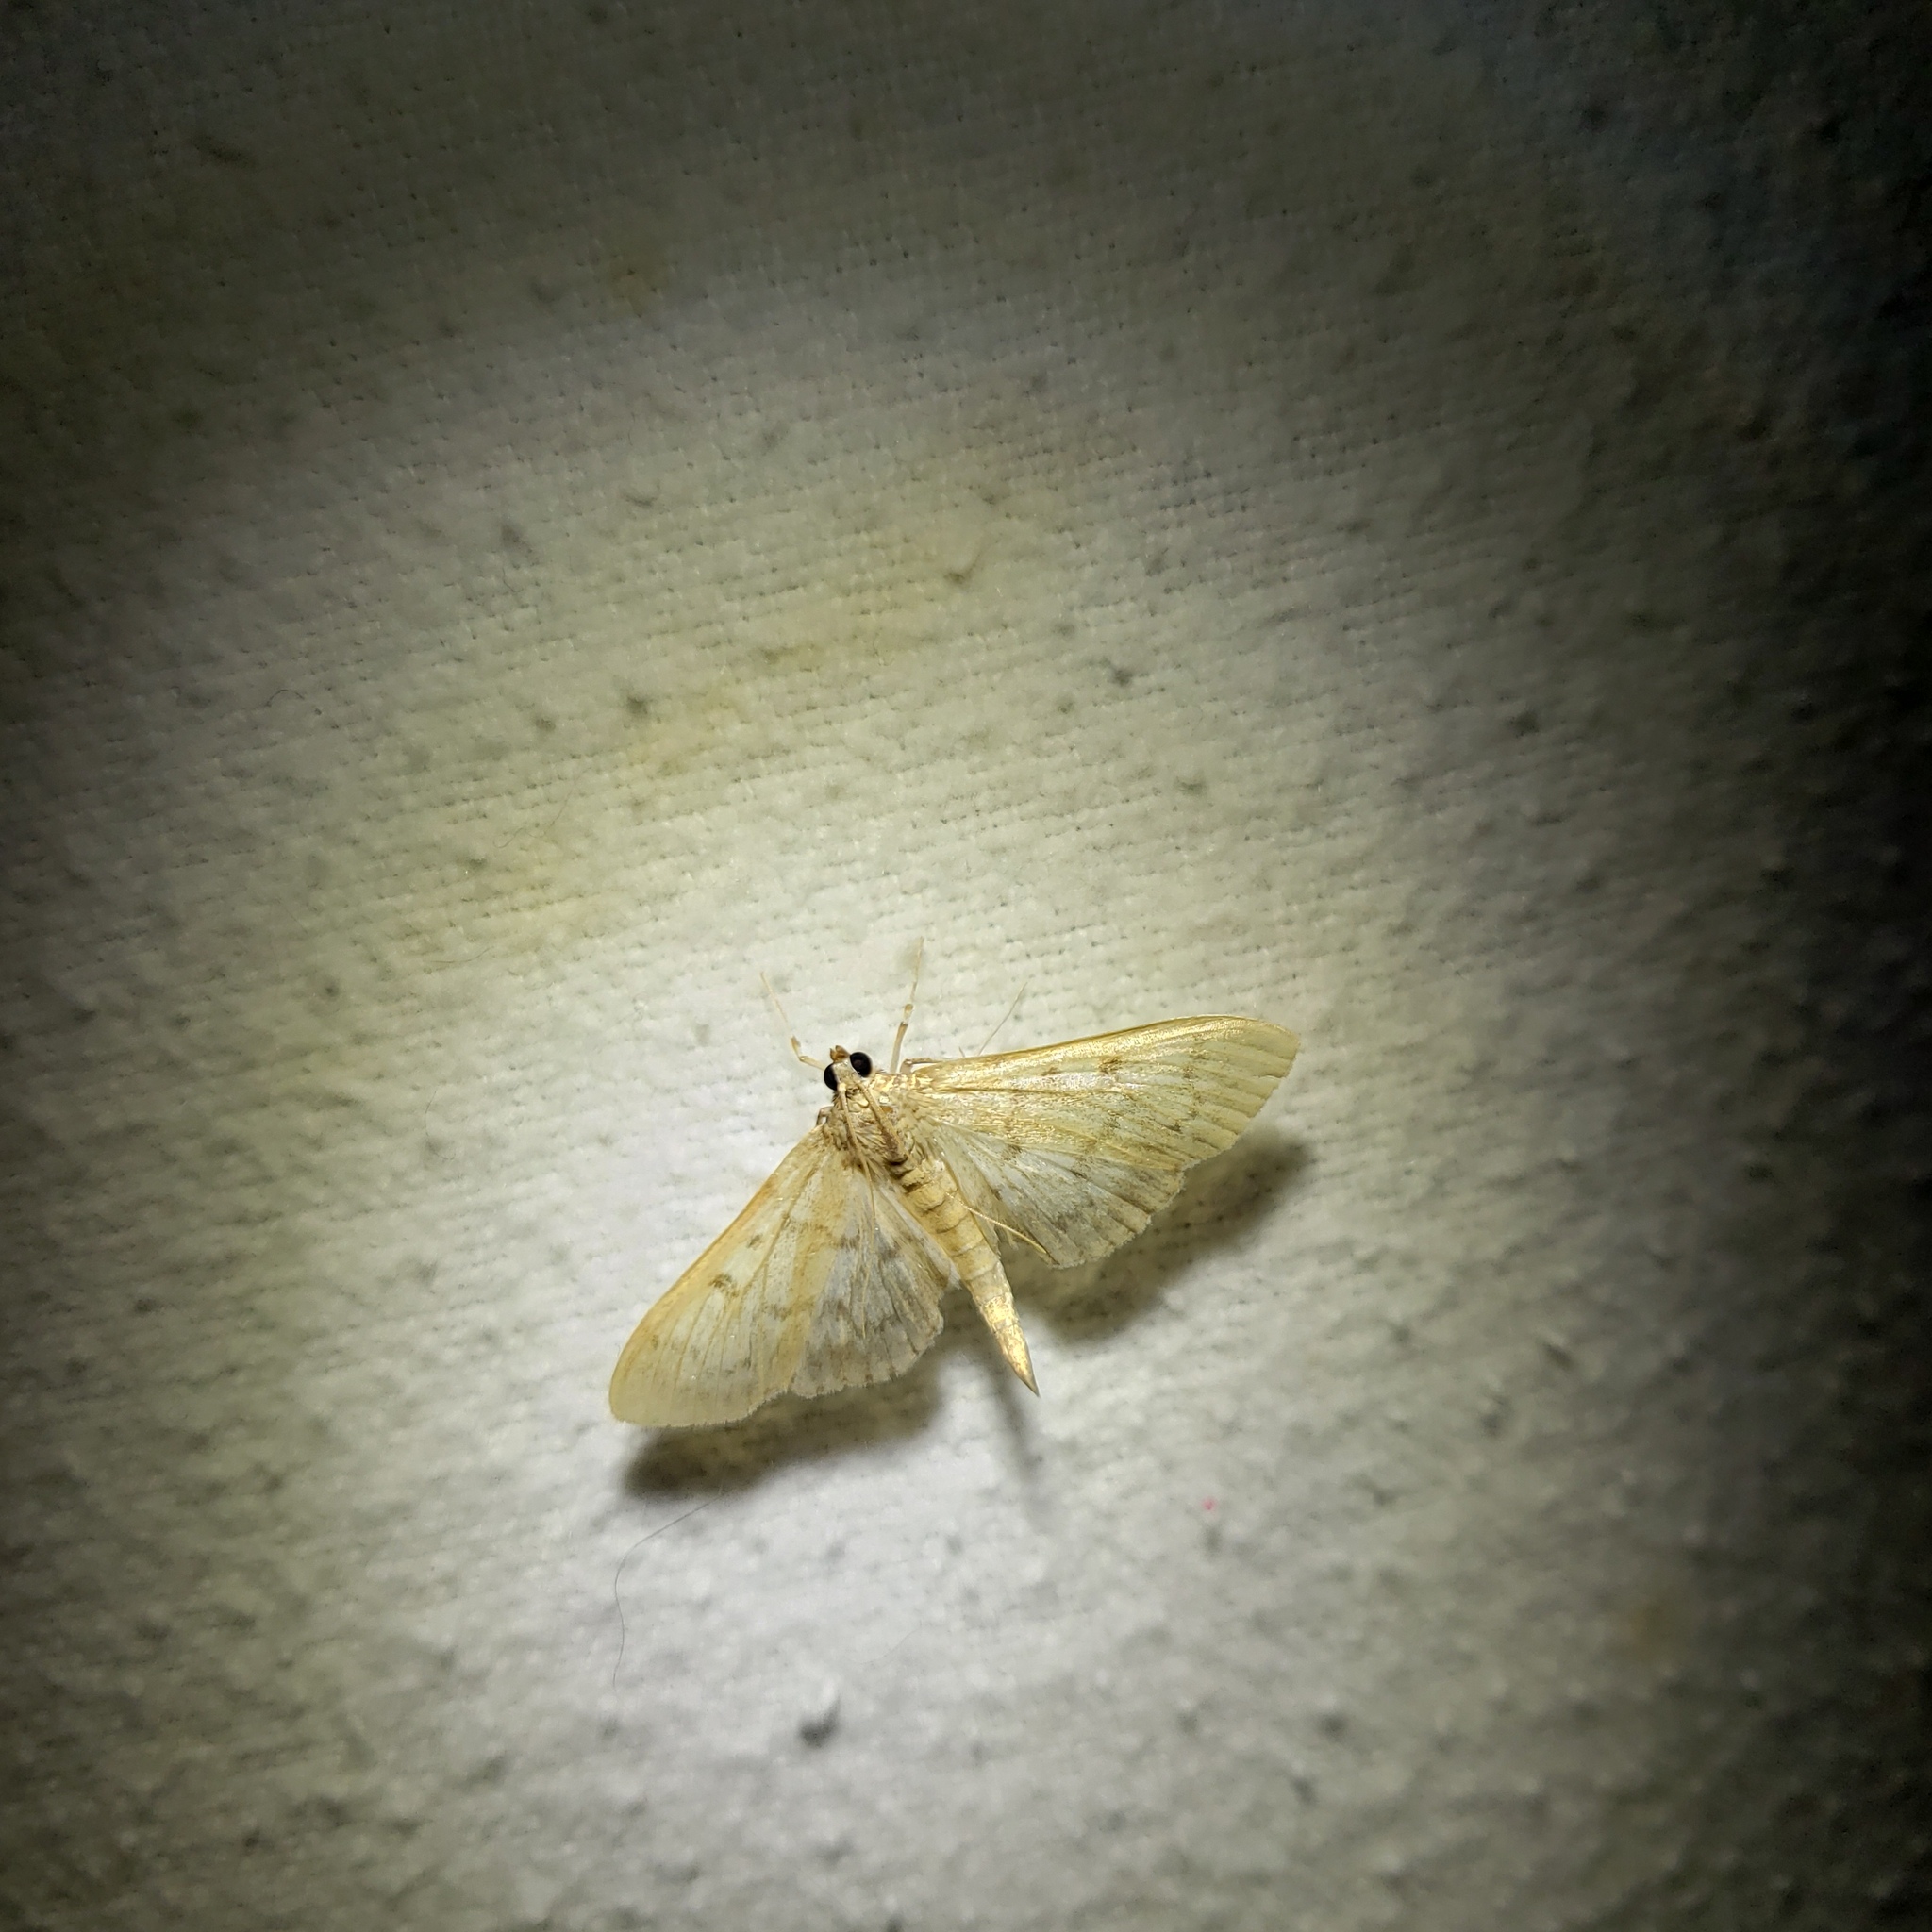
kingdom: Animalia
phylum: Arthropoda
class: Insecta
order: Lepidoptera
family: Crambidae
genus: Herpetogramma
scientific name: Herpetogramma aquilonalis
